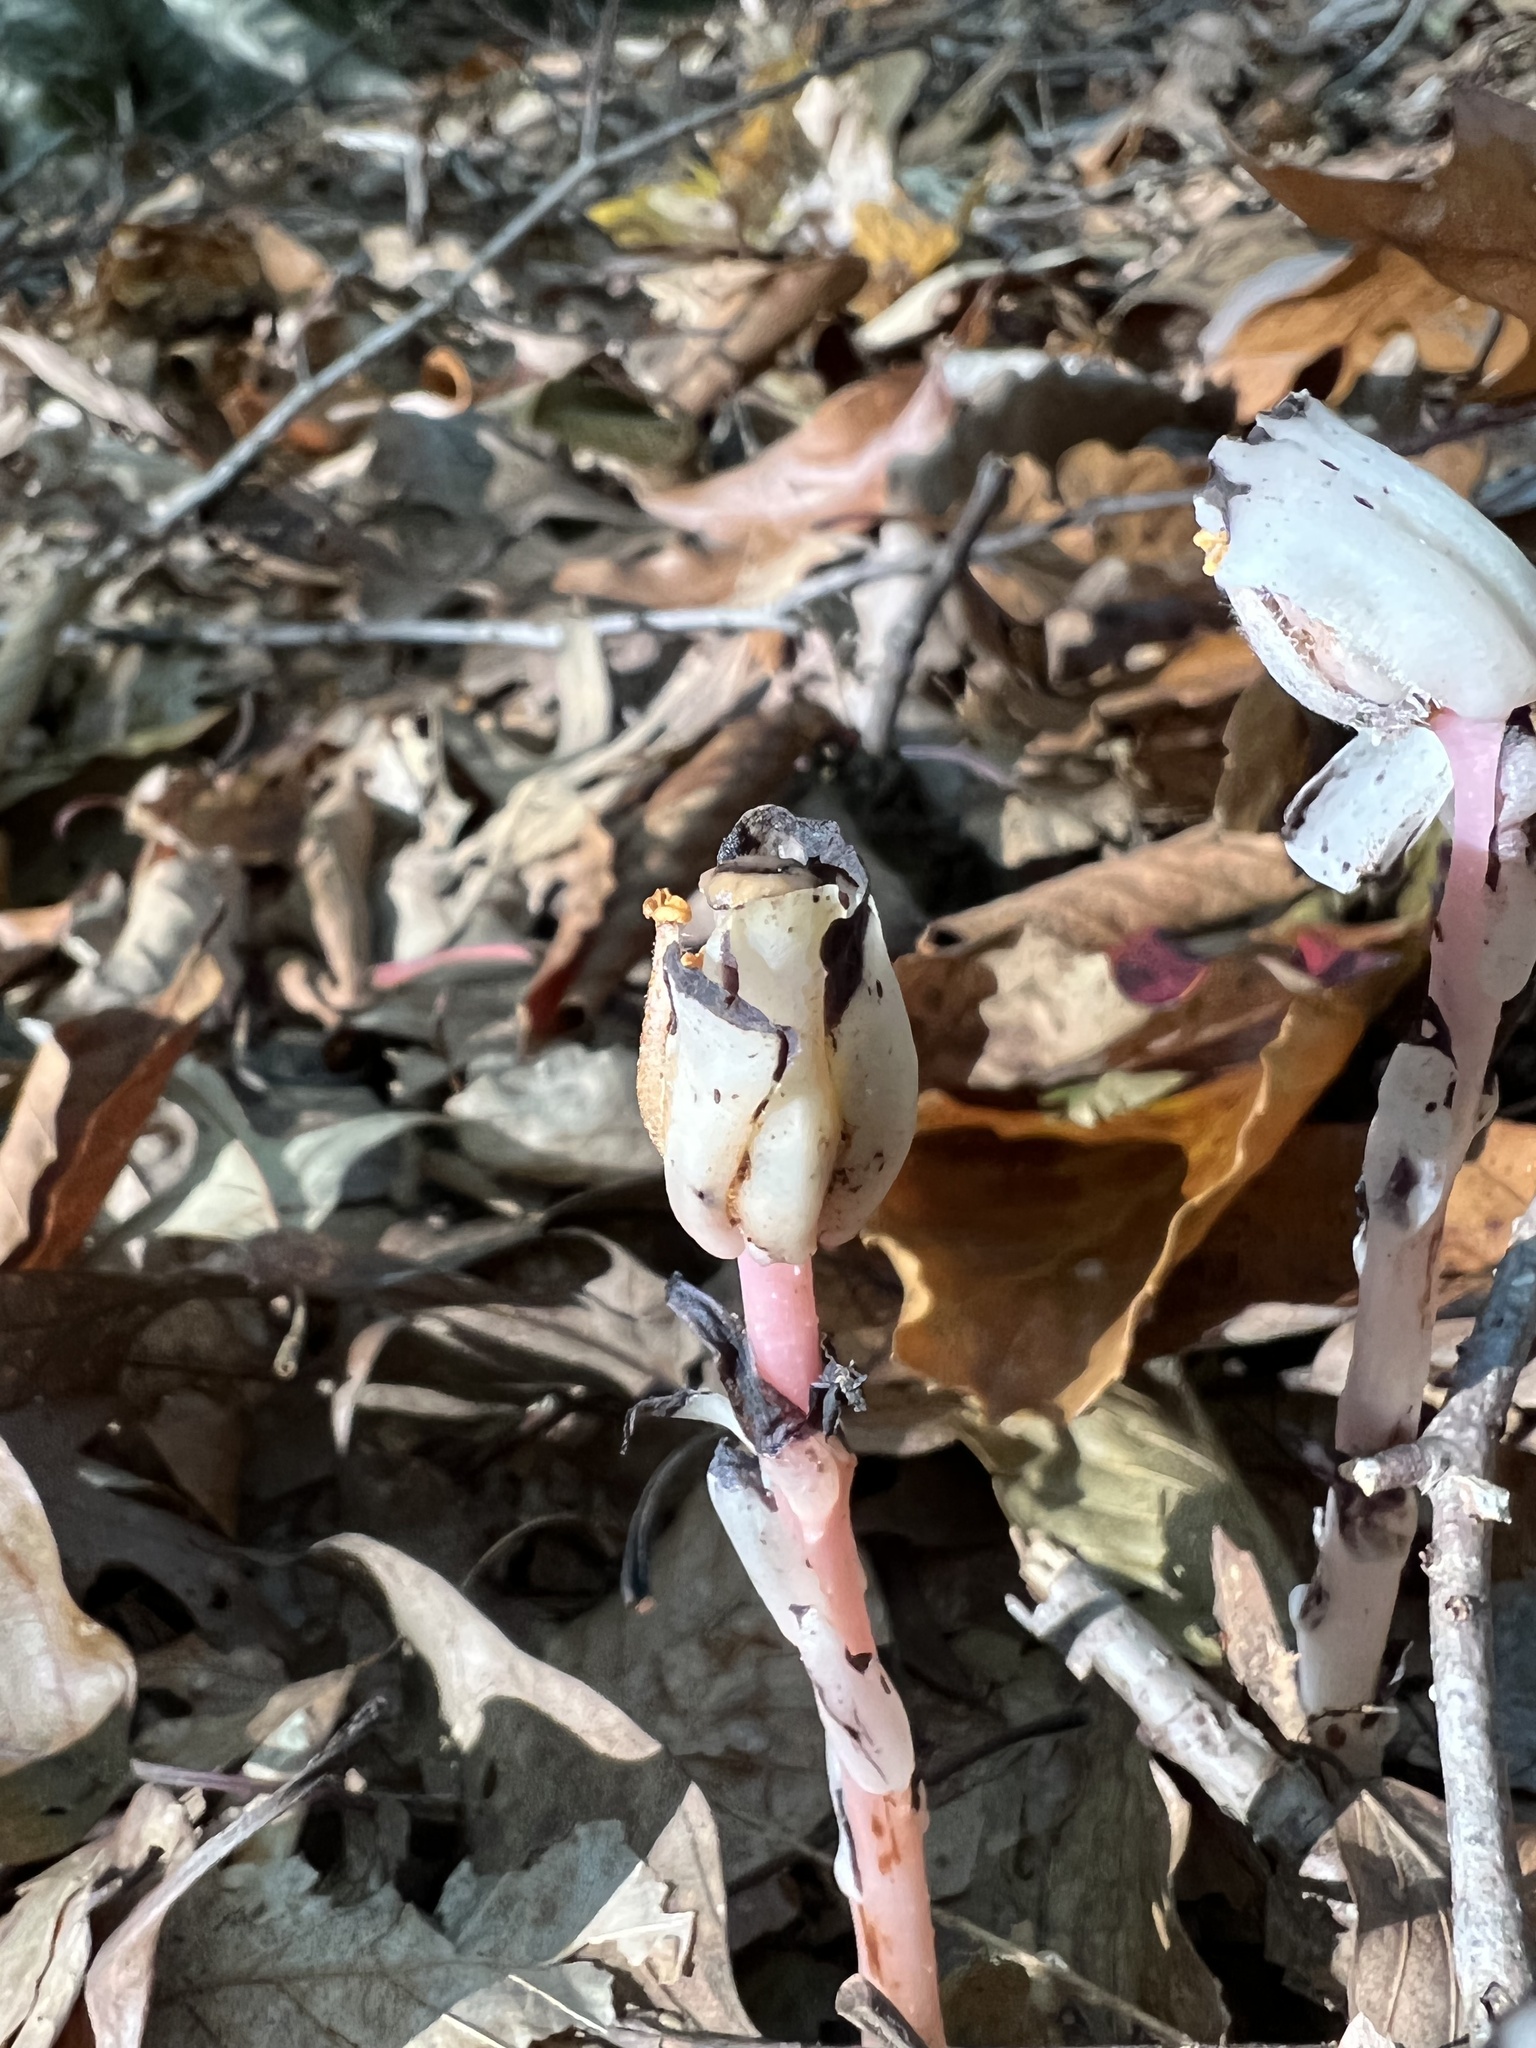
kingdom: Plantae
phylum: Tracheophyta
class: Magnoliopsida
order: Ericales
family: Ericaceae
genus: Monotropa
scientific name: Monotropa uniflora
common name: Convulsion root
